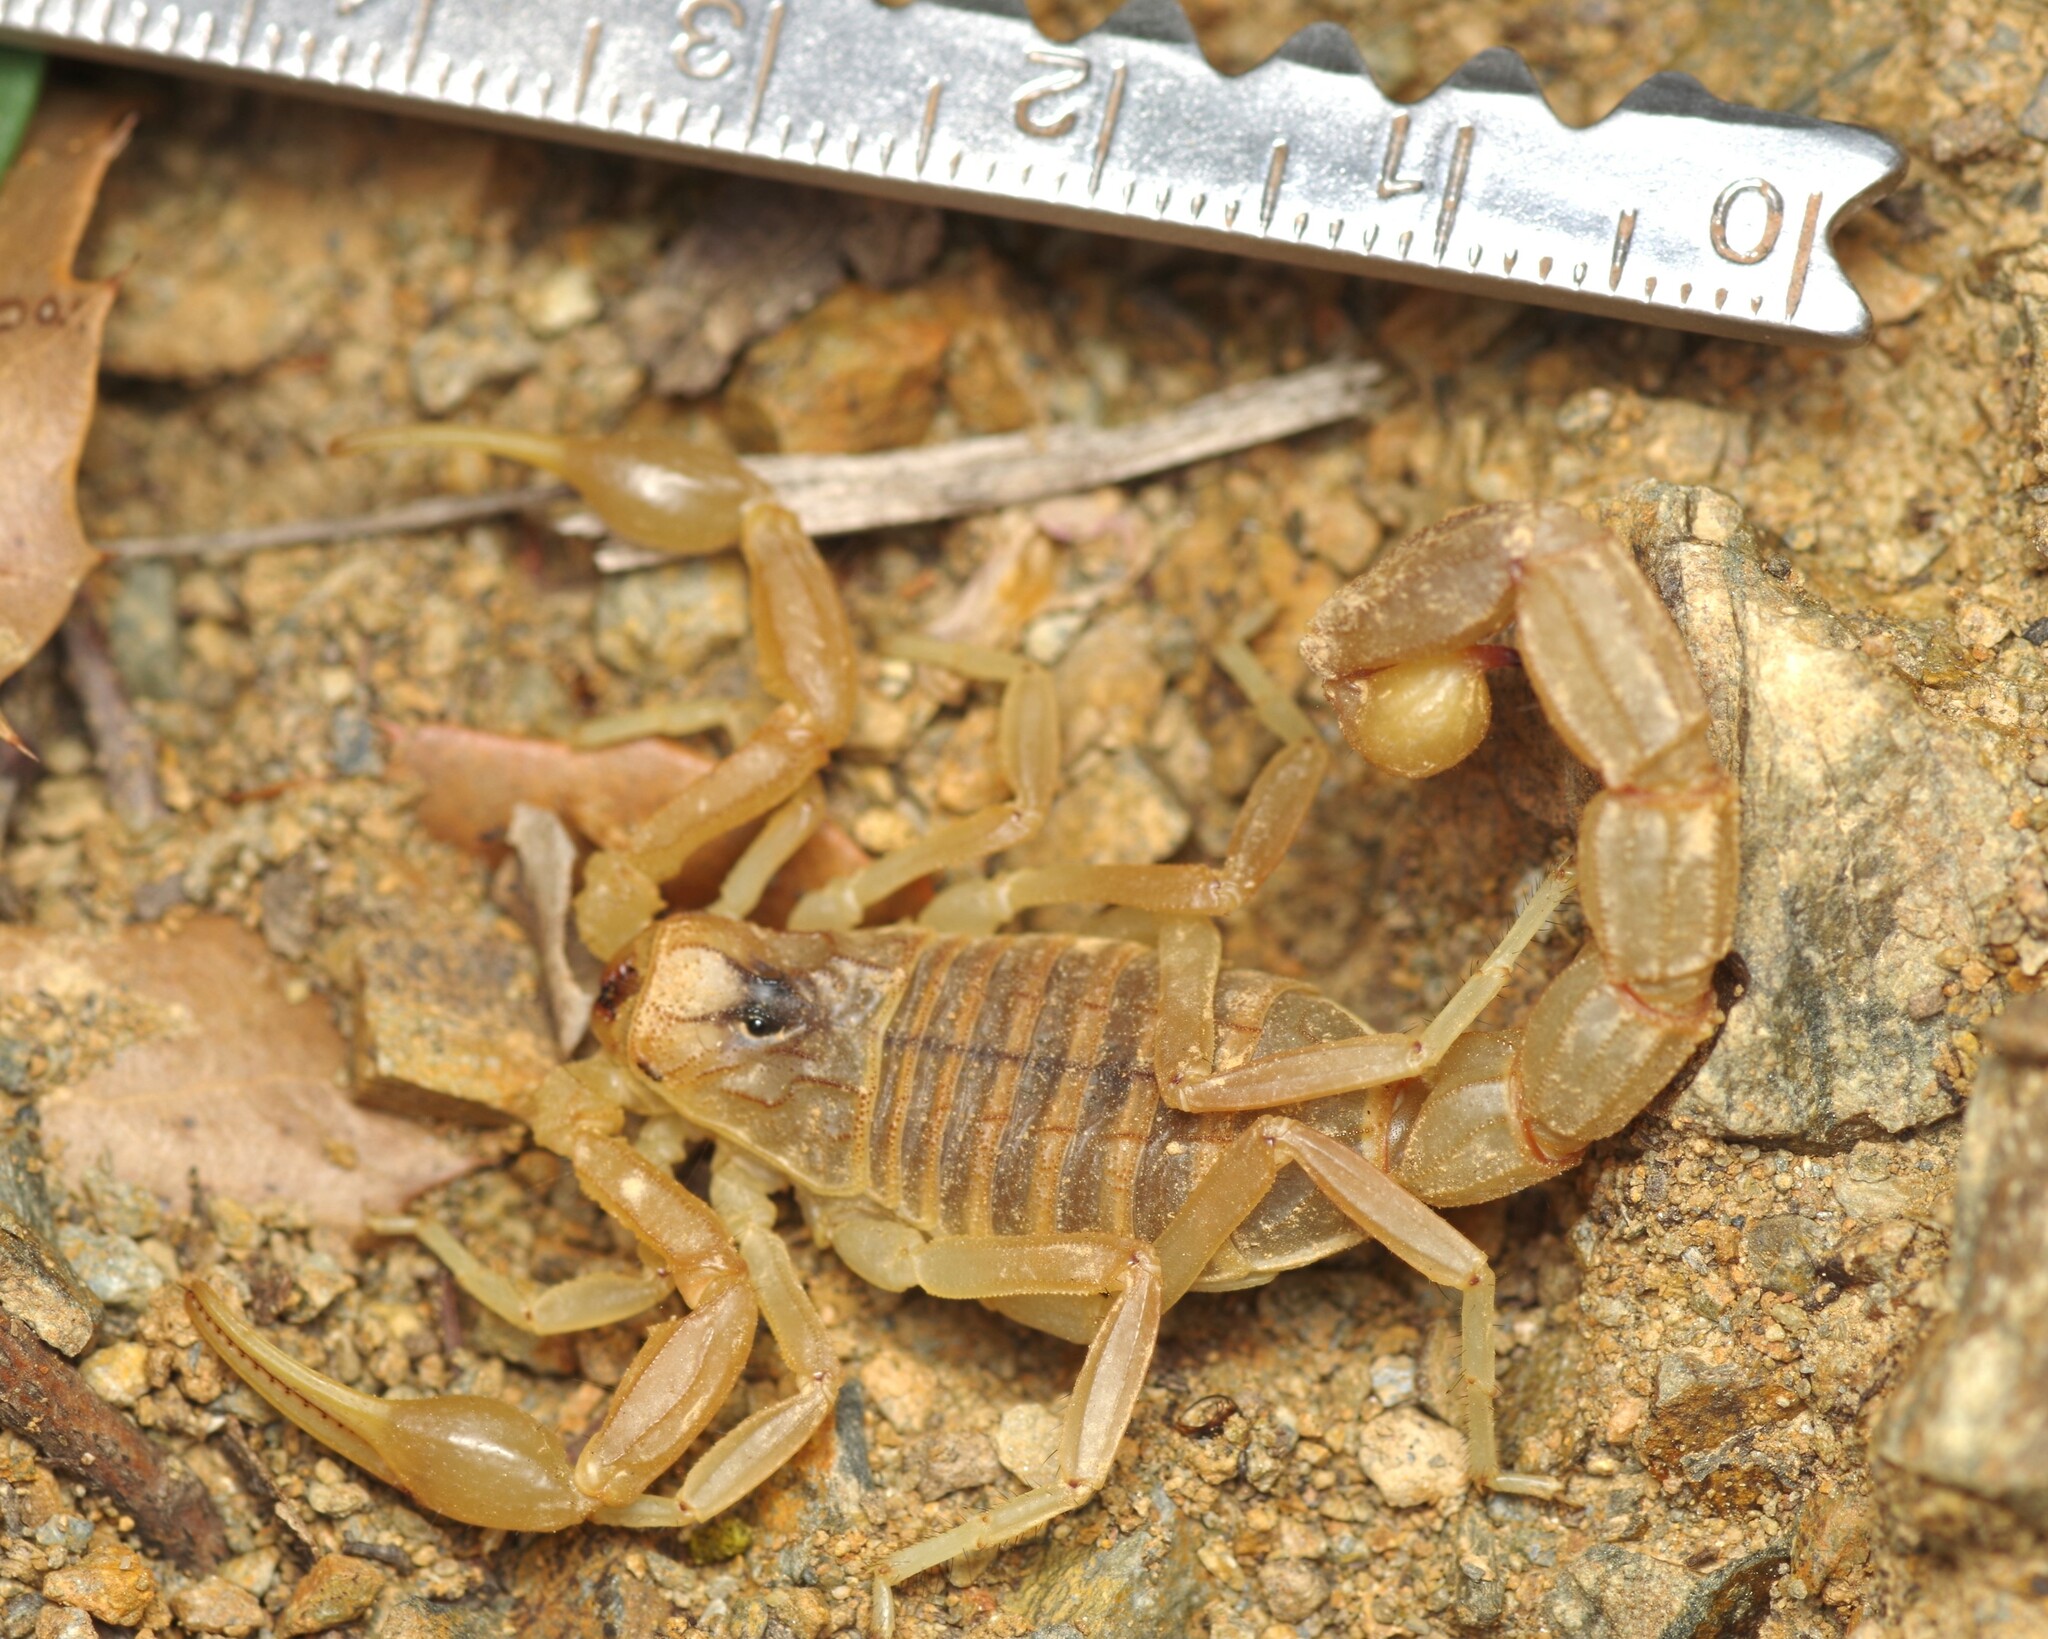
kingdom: Animalia
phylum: Arthropoda
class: Arachnida
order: Scorpiones
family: Buthidae
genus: Buthus
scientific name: Buthus pyrenaeus
